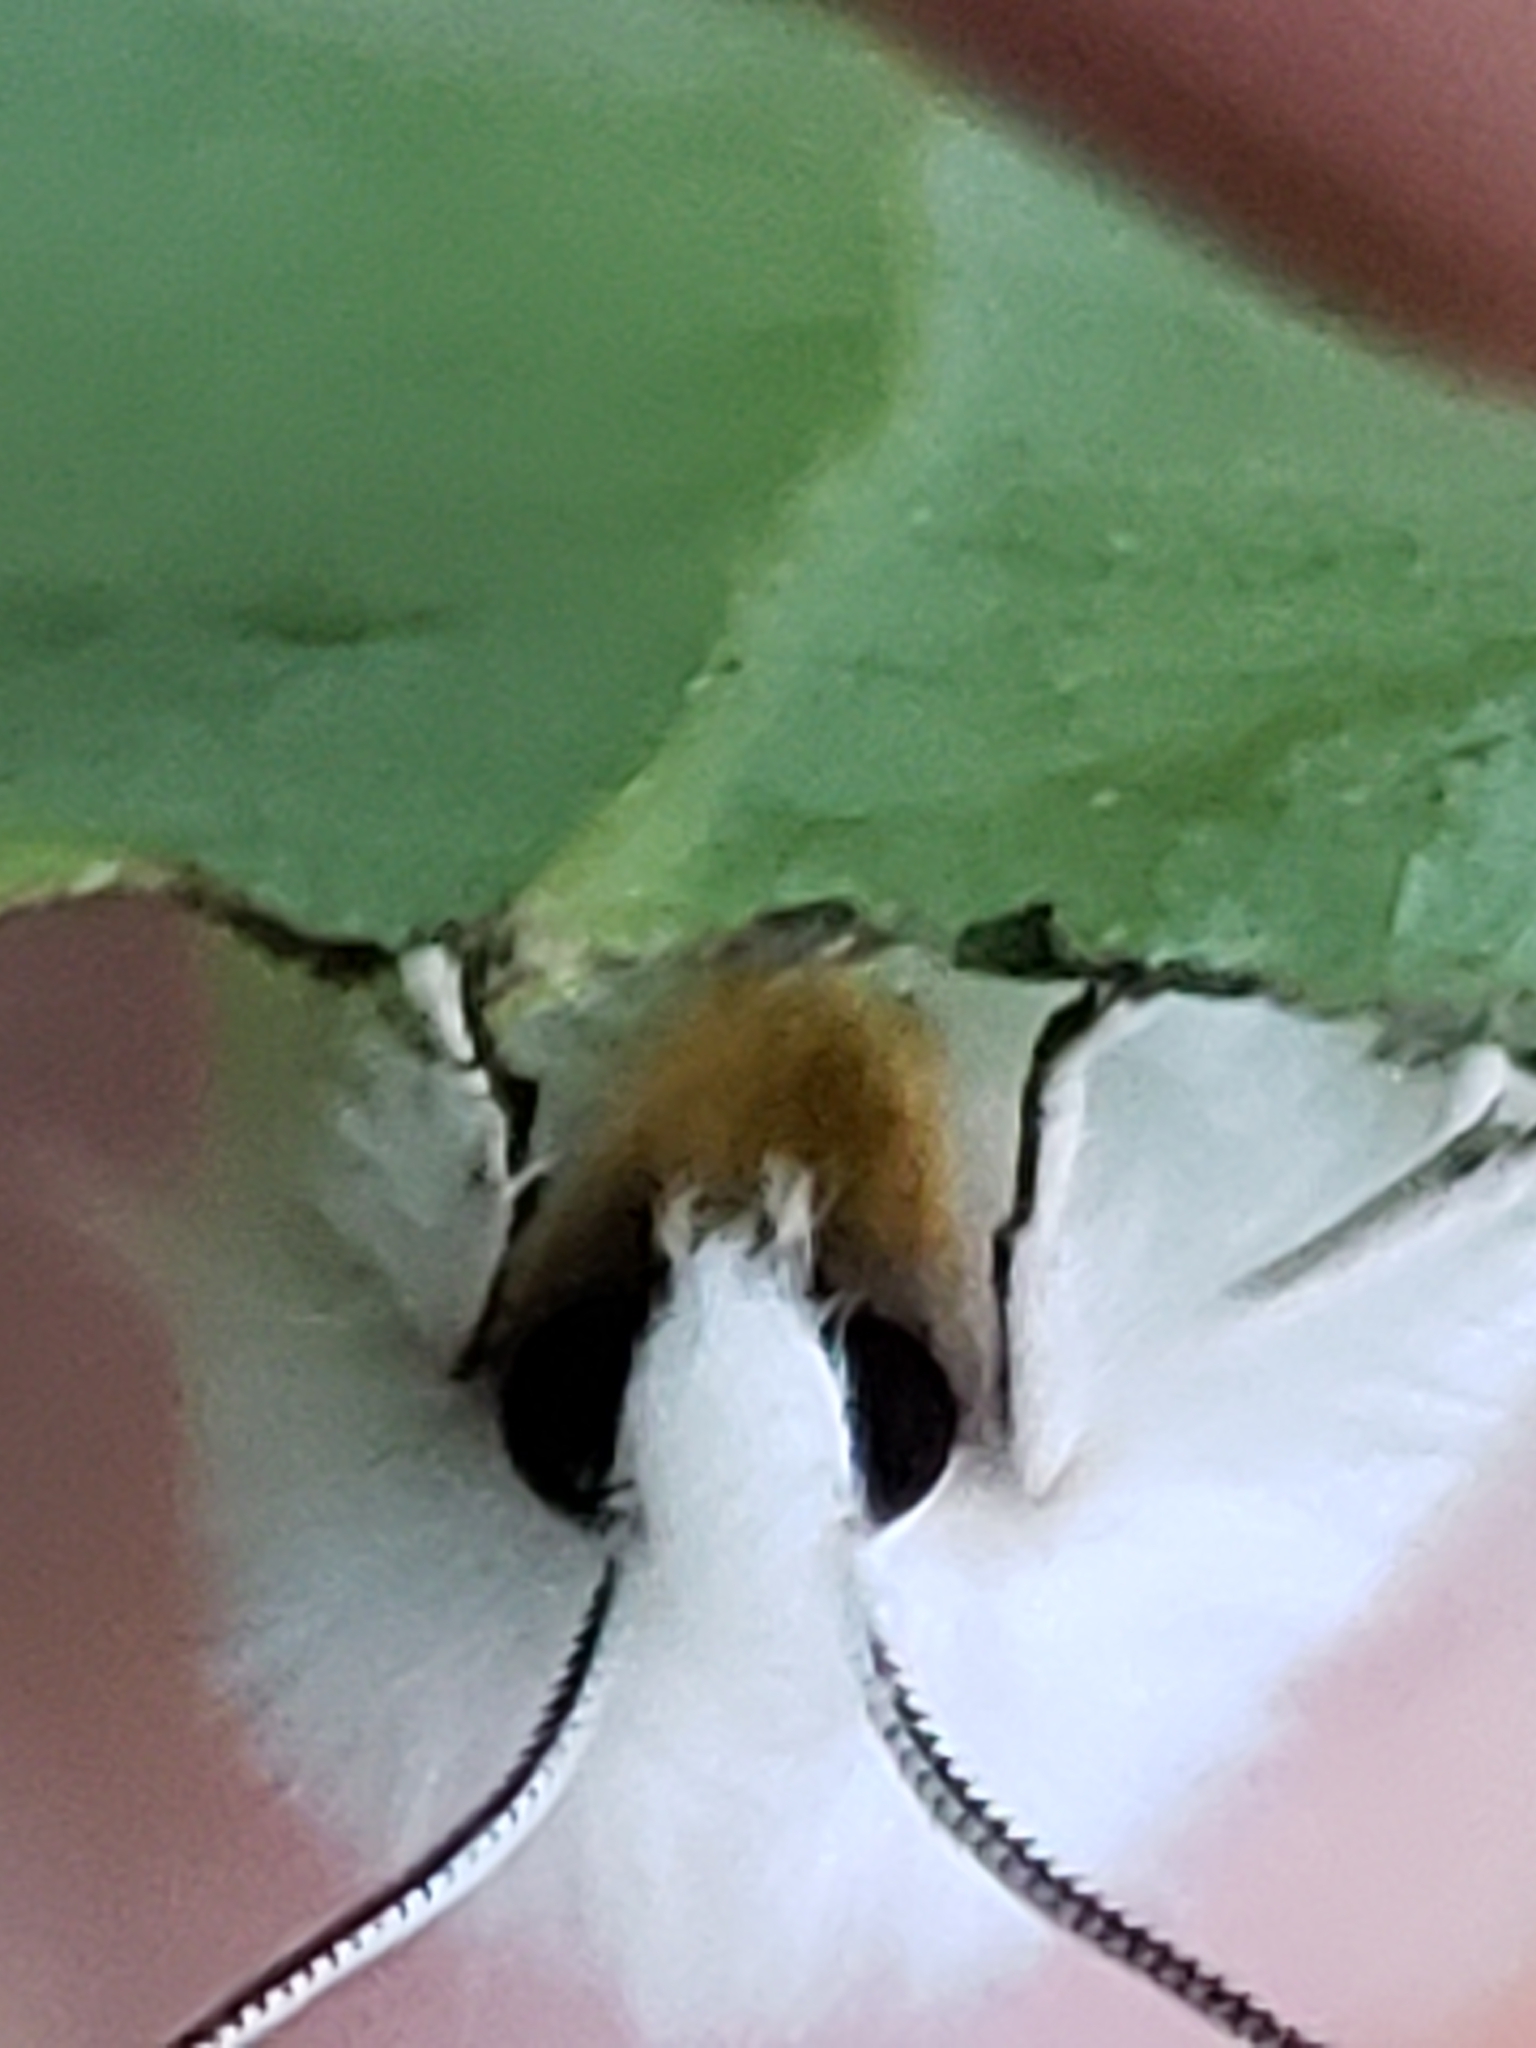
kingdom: Animalia
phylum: Arthropoda
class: Insecta
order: Lepidoptera
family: Erebidae
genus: Spilosoma
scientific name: Spilosoma congrua
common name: Agreeable tiger moth
